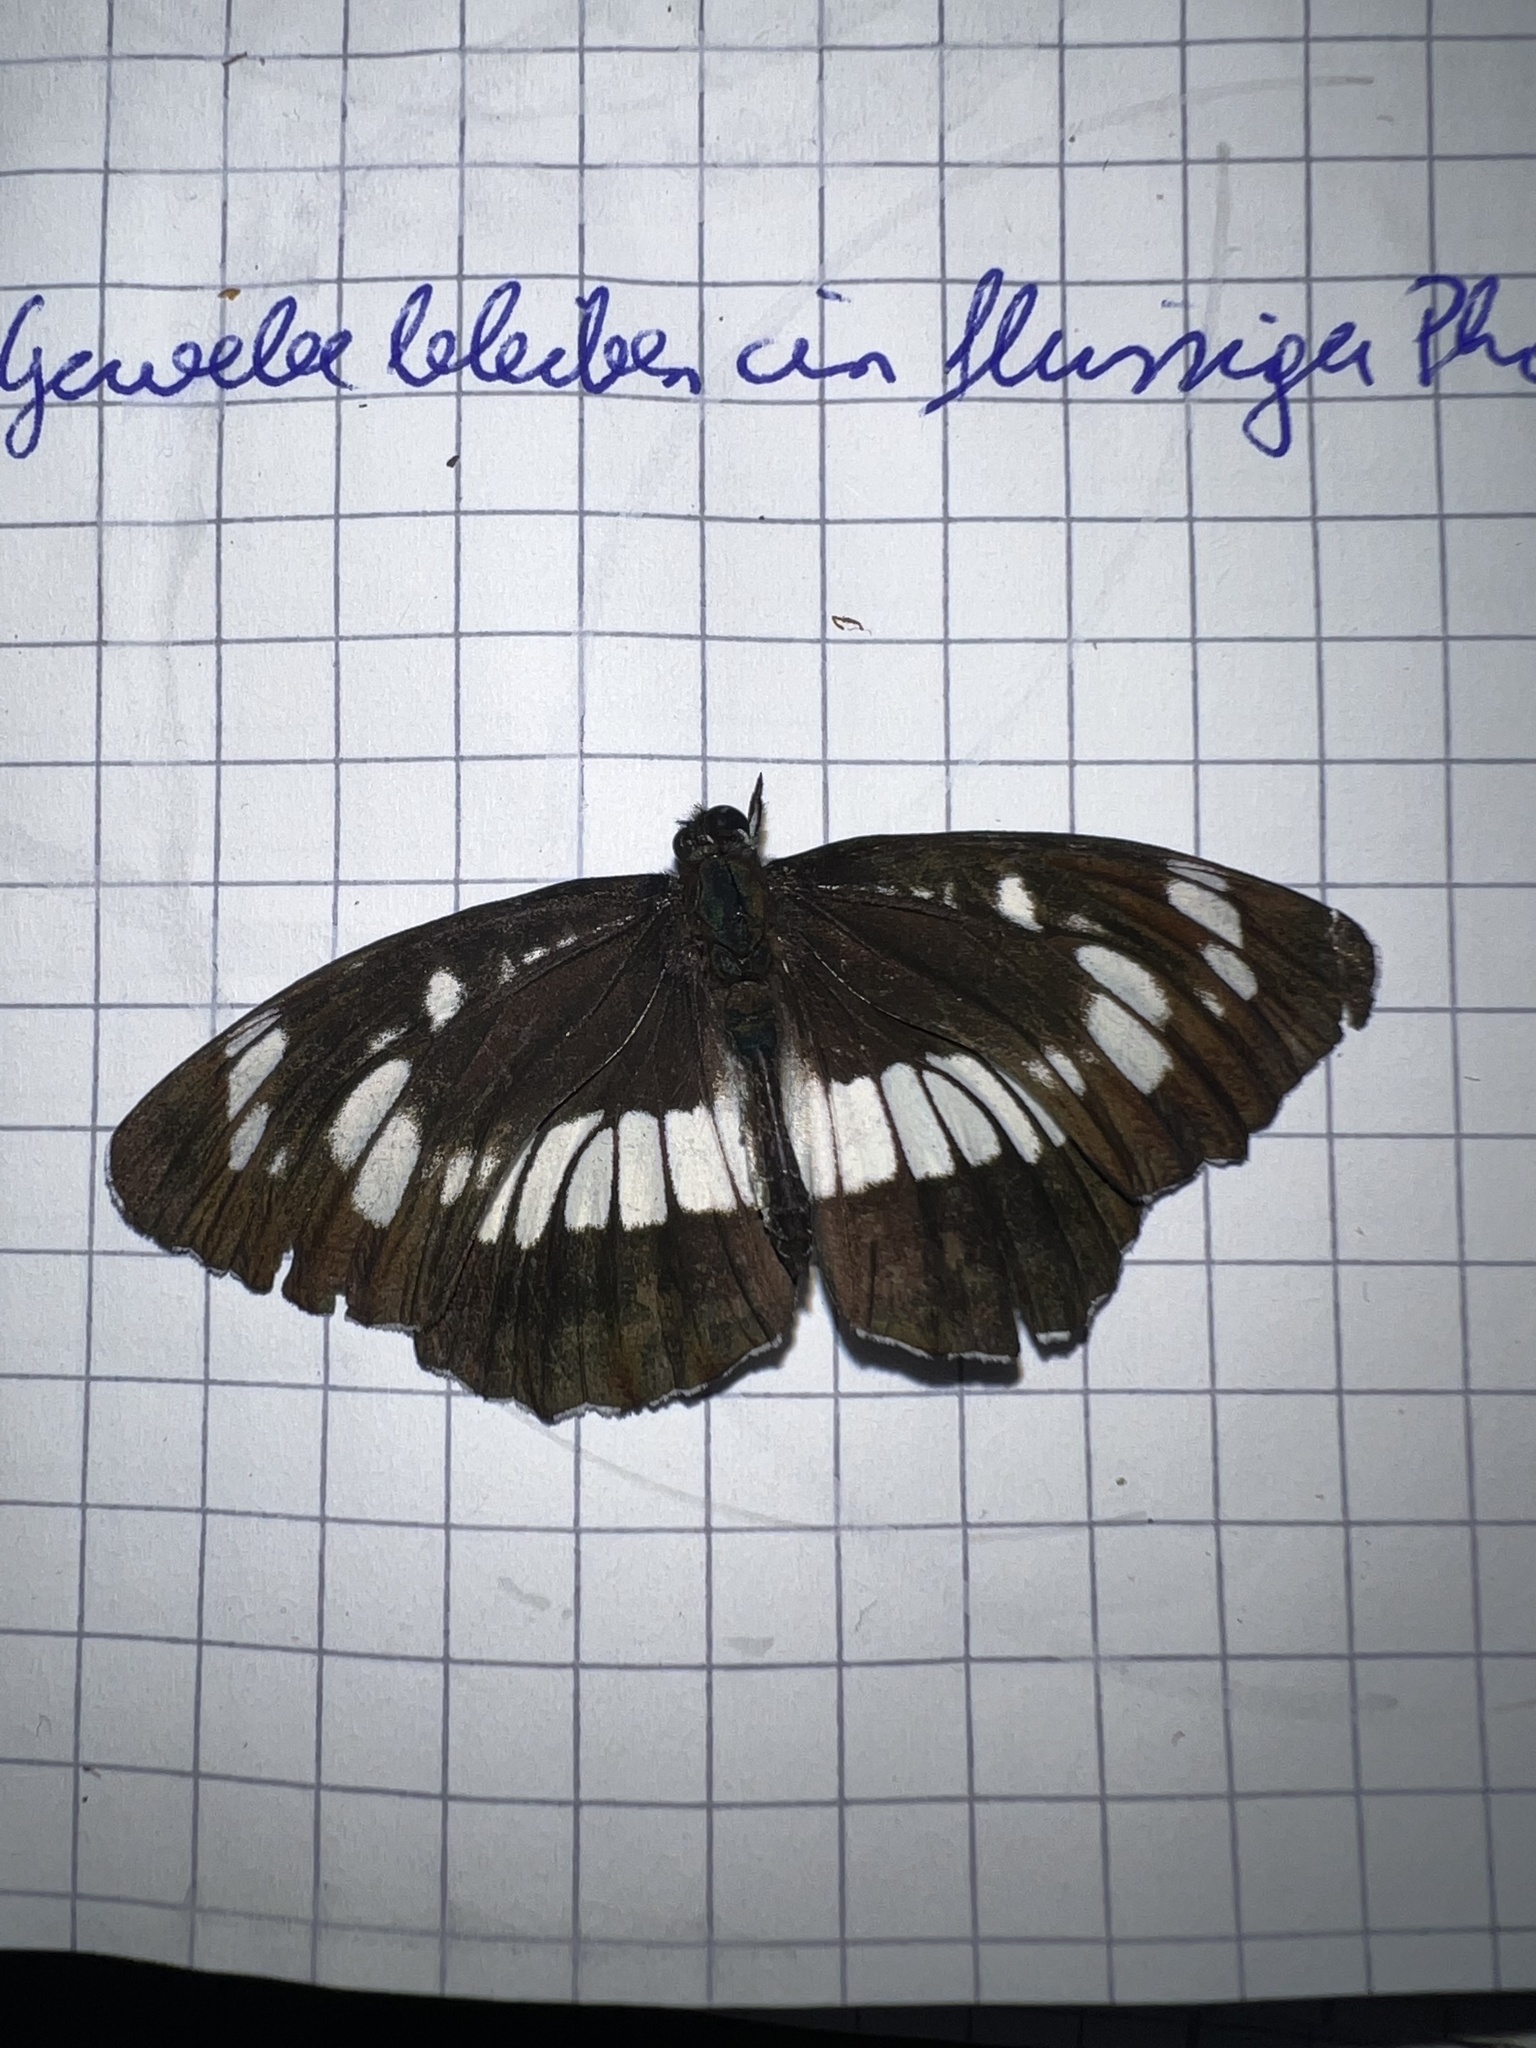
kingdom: Animalia
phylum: Arthropoda
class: Insecta
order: Lepidoptera
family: Nymphalidae
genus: Neptis
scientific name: Neptis rivularis
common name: Hungarian glider
